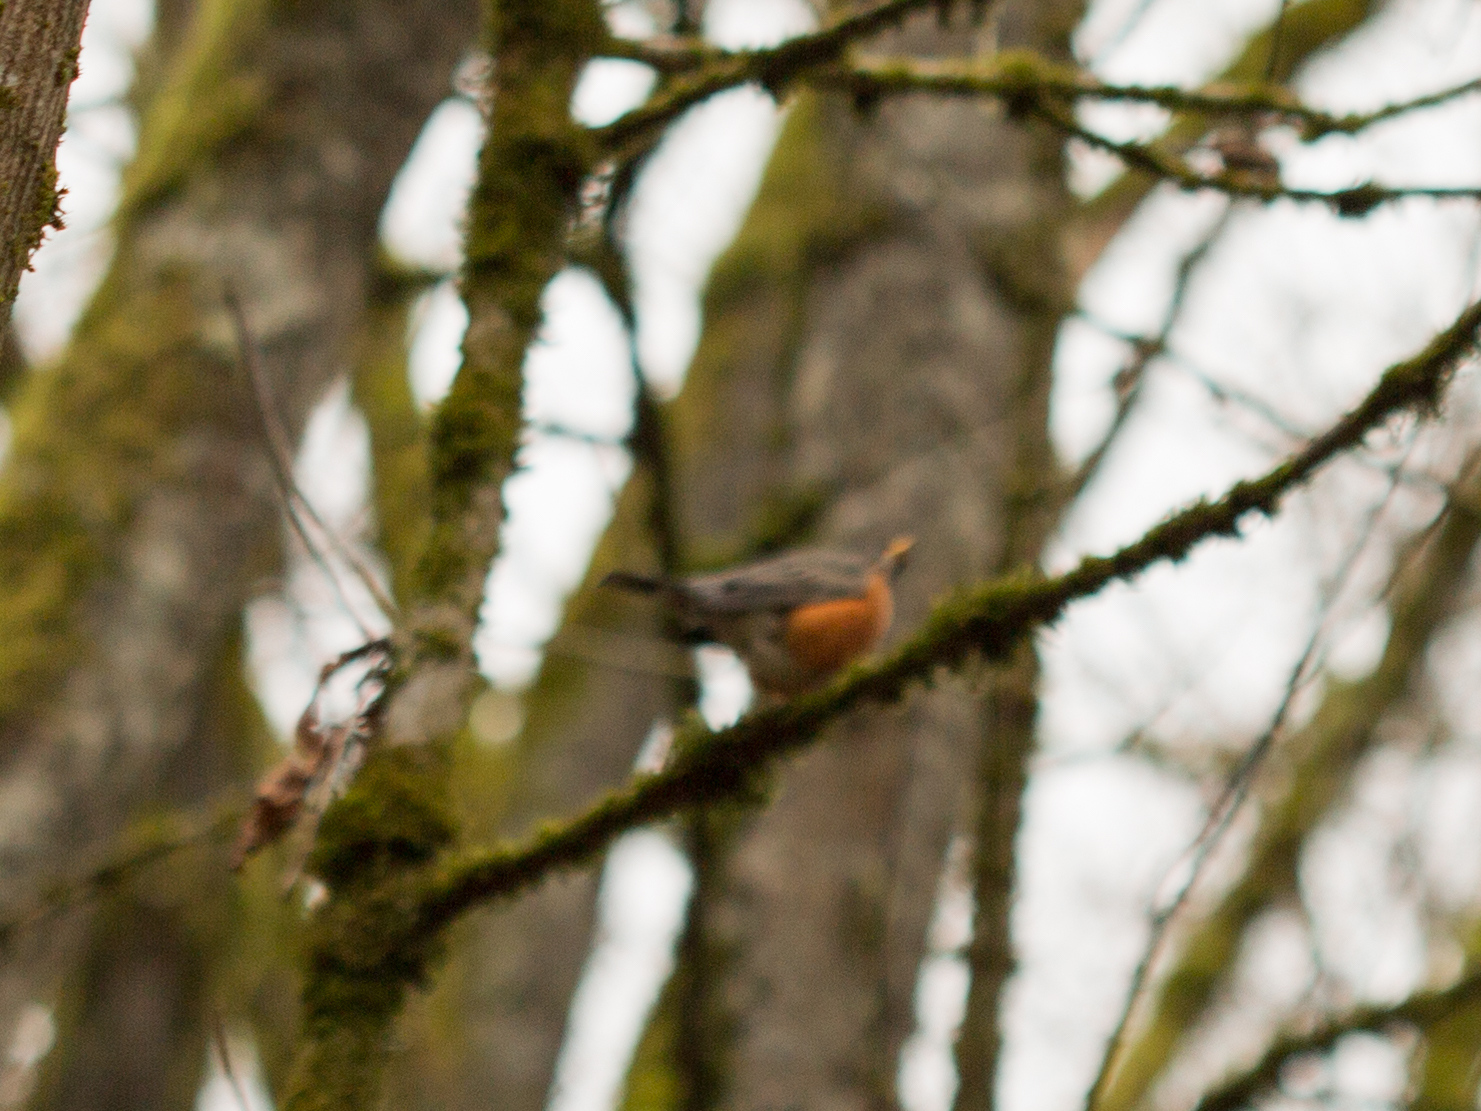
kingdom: Animalia
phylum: Chordata
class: Aves
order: Passeriformes
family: Turdidae
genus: Turdus
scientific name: Turdus migratorius
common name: American robin
